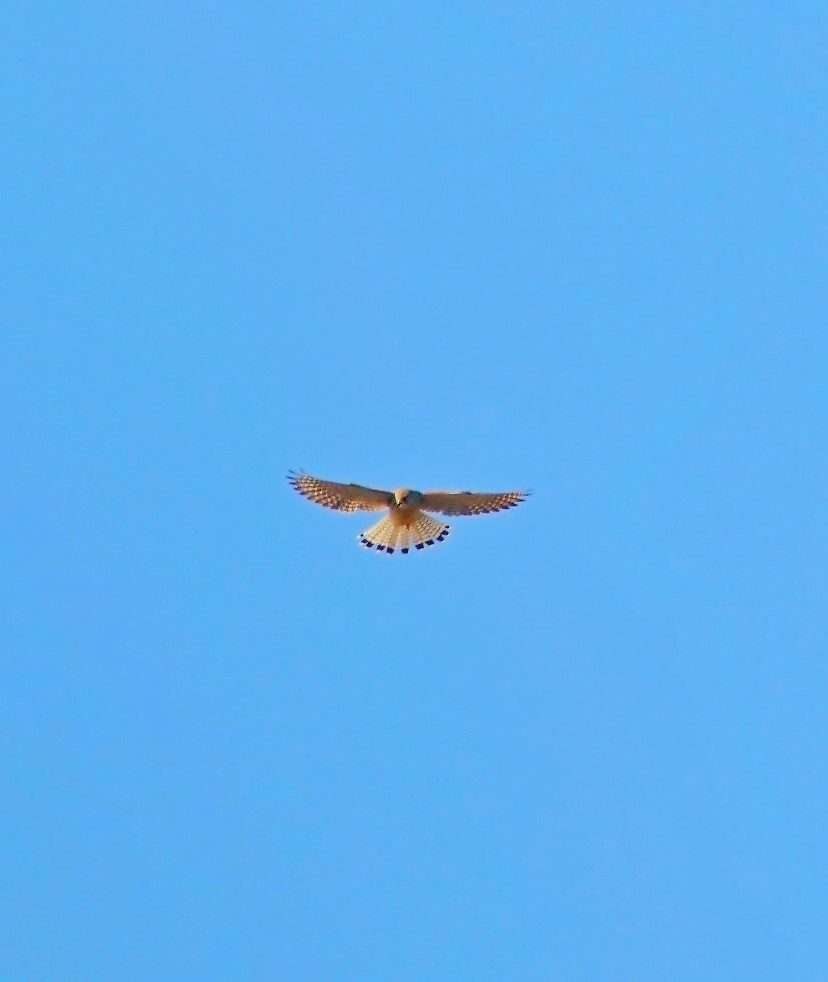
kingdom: Animalia
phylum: Chordata
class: Aves
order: Falconiformes
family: Falconidae
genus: Falco
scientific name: Falco tinnunculus
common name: Common kestrel
